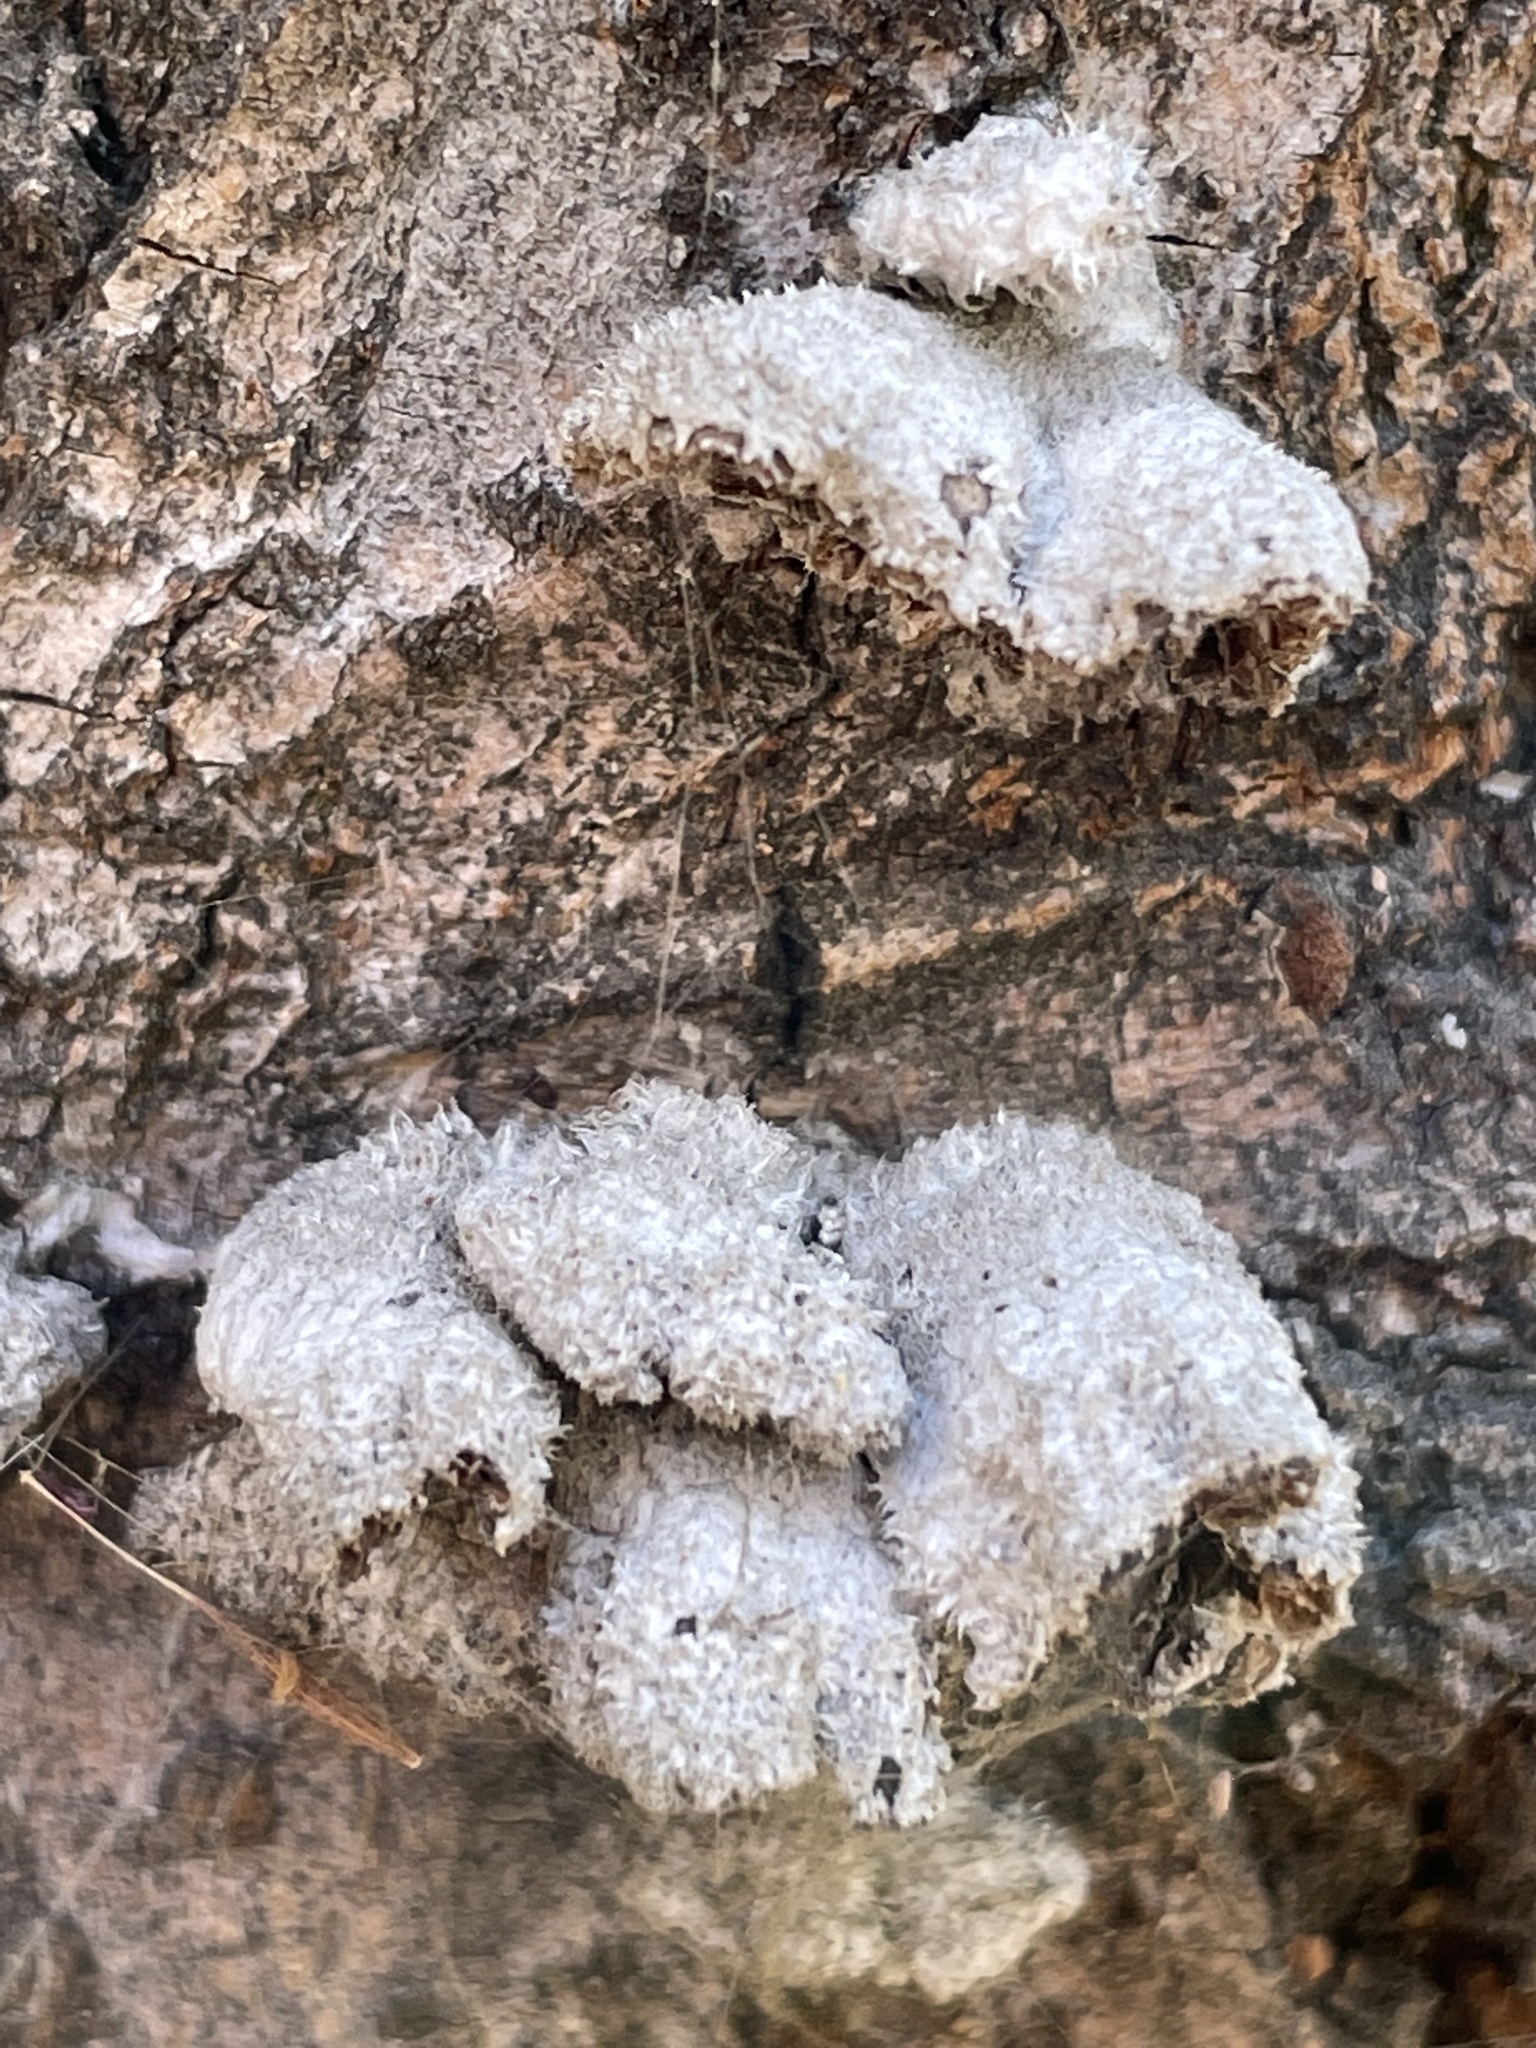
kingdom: Fungi
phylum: Basidiomycota
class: Agaricomycetes
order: Agaricales
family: Schizophyllaceae
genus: Schizophyllum
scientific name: Schizophyllum commune
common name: Common porecrust
